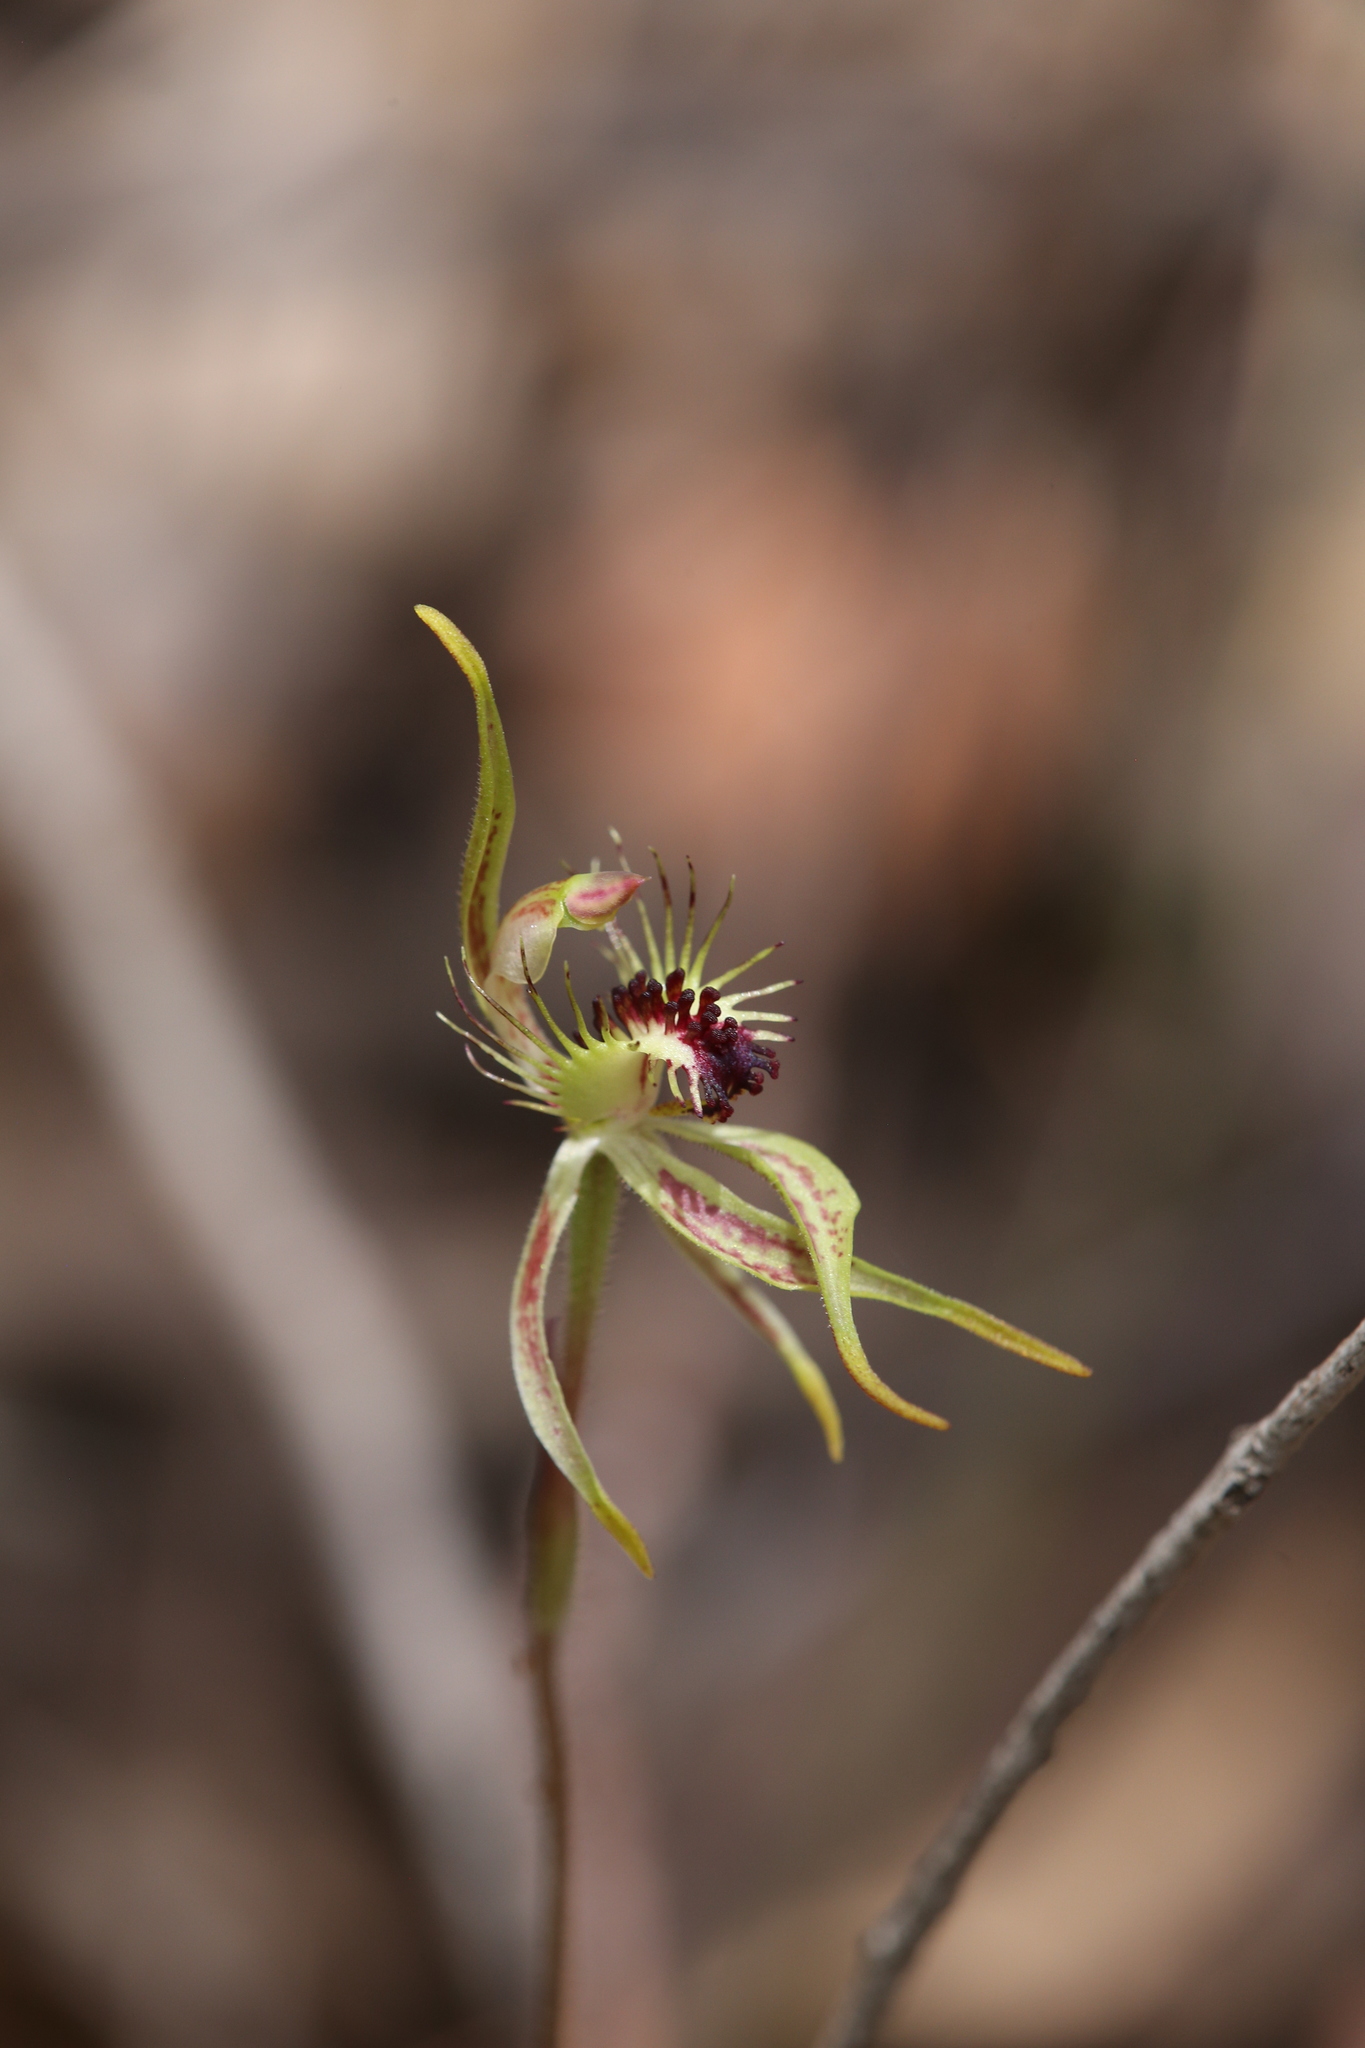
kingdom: Plantae
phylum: Tracheophyta
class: Liliopsida
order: Asparagales
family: Orchidaceae
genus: Caladenia
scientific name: Caladenia corynephora
